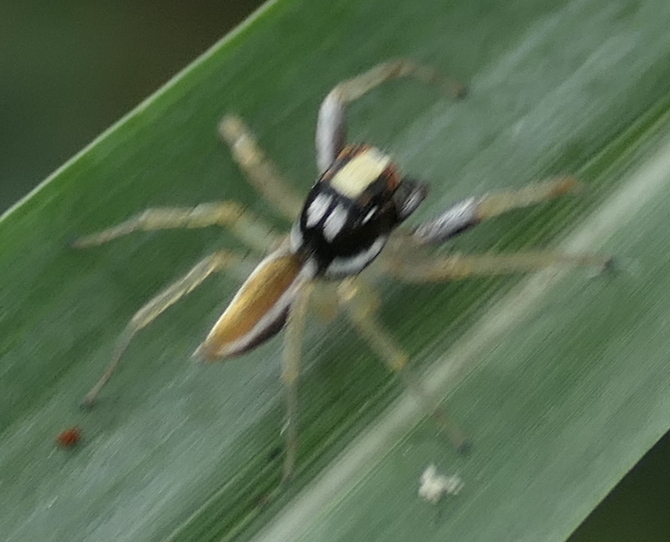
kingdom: Animalia
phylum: Arthropoda
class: Arachnida
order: Araneae
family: Salticidae
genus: Chira
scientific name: Chira spinosa
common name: Jumping spiders
